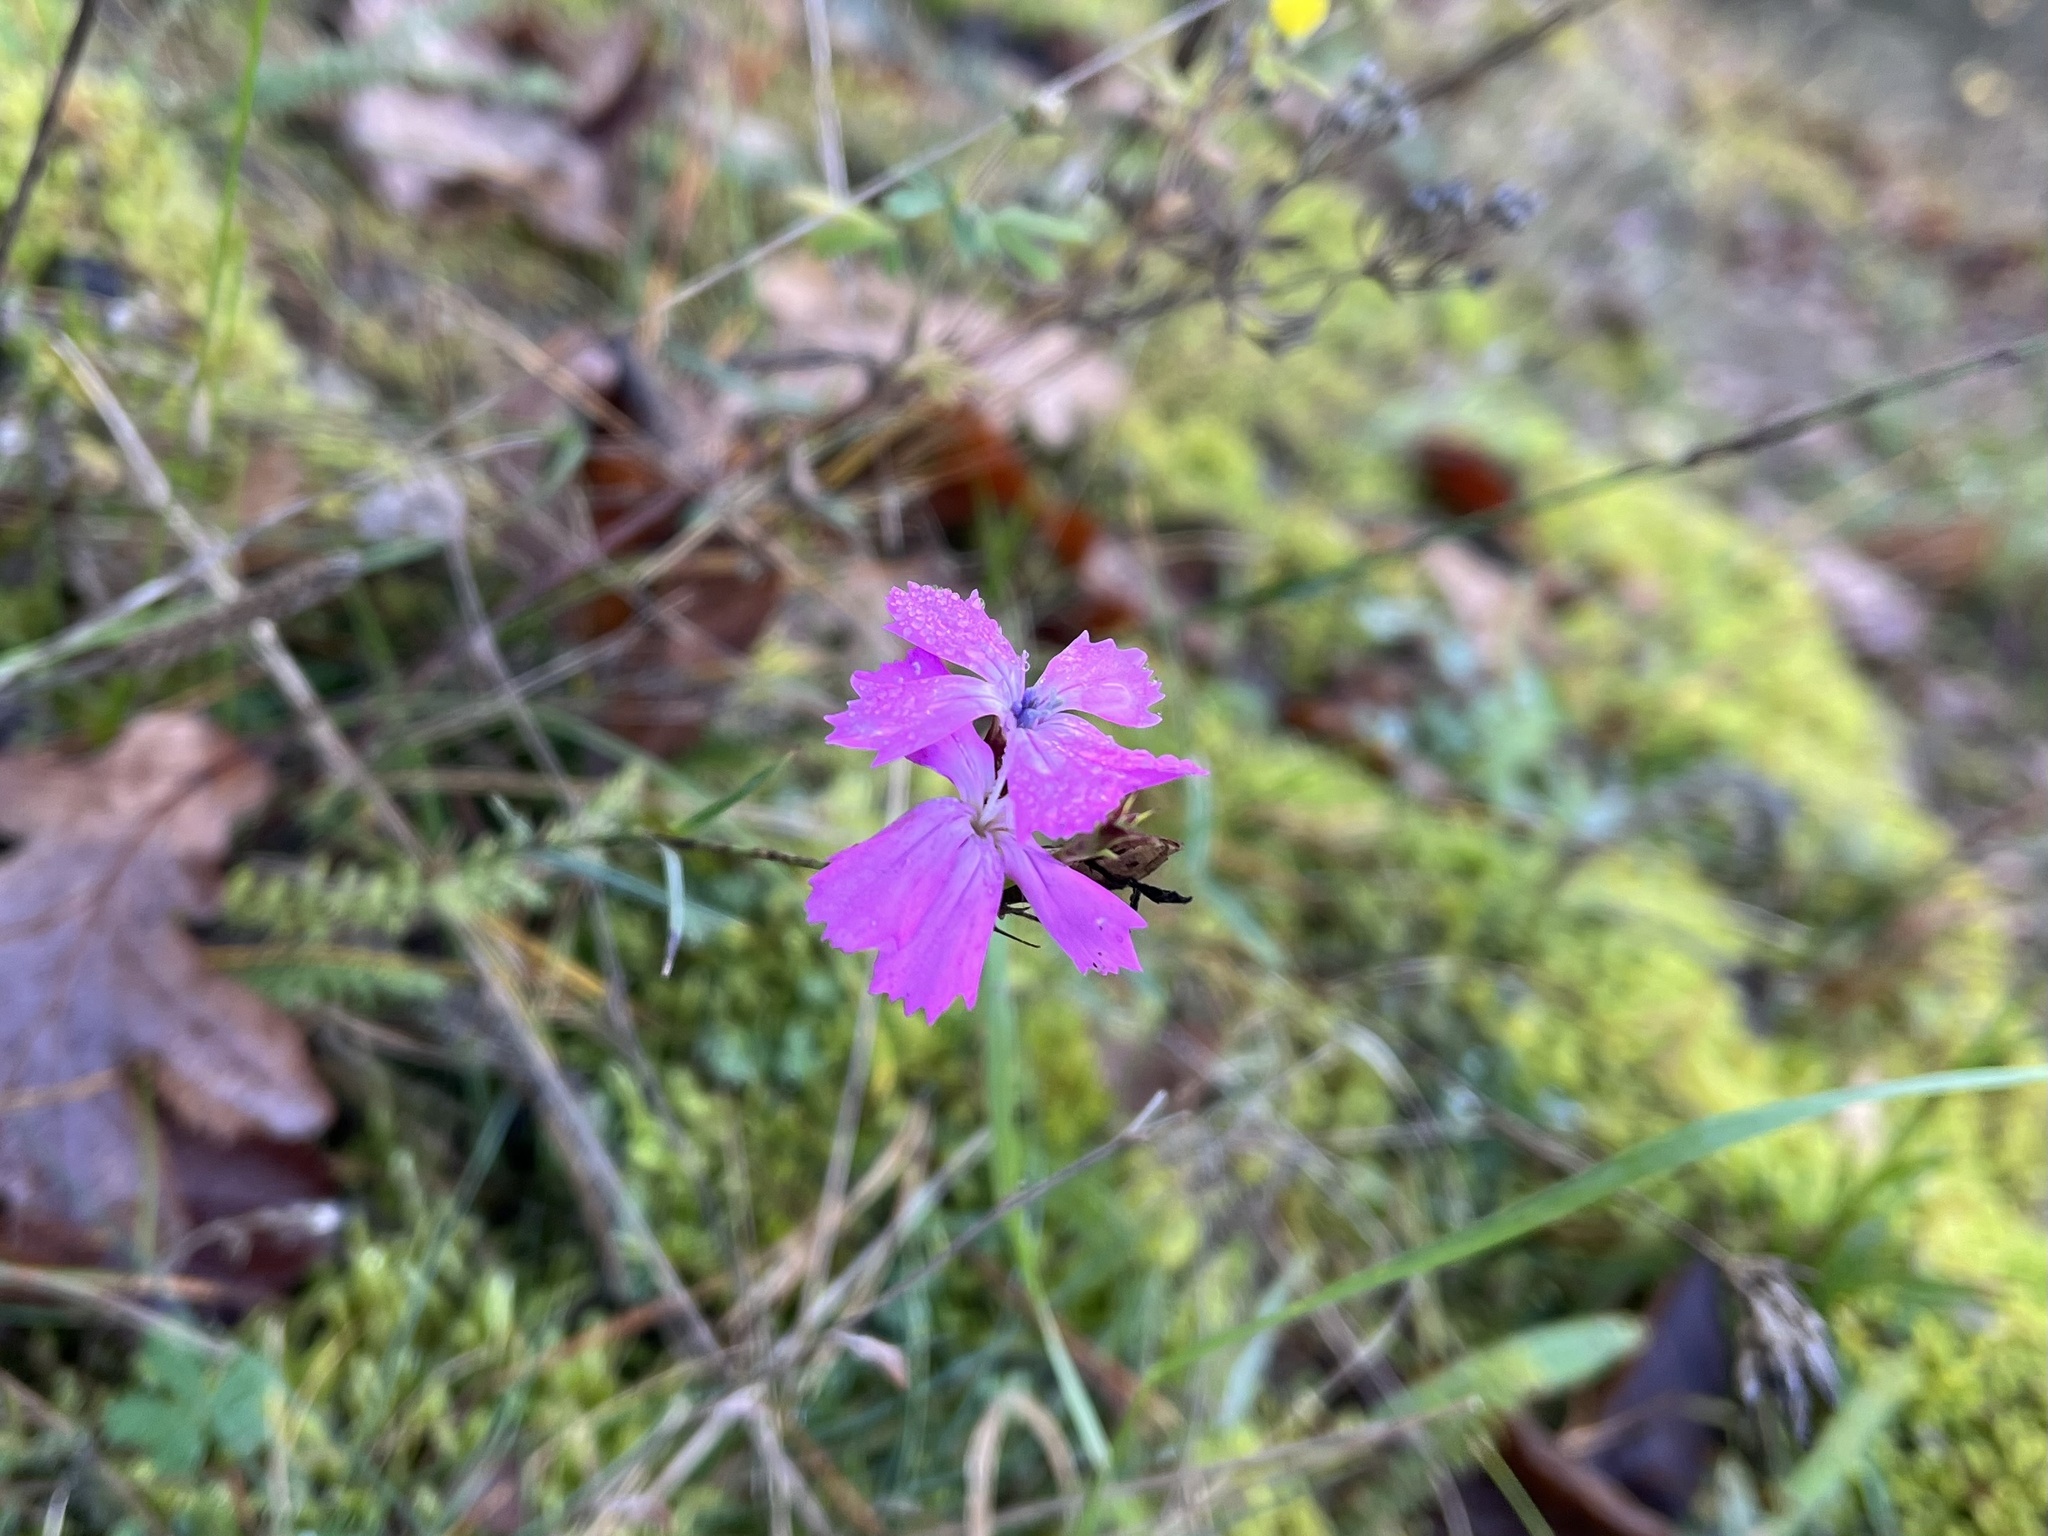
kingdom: Plantae
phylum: Tracheophyta
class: Magnoliopsida
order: Caryophyllales
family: Caryophyllaceae
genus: Dianthus
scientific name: Dianthus carthusianorum
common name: Carthusian pink
